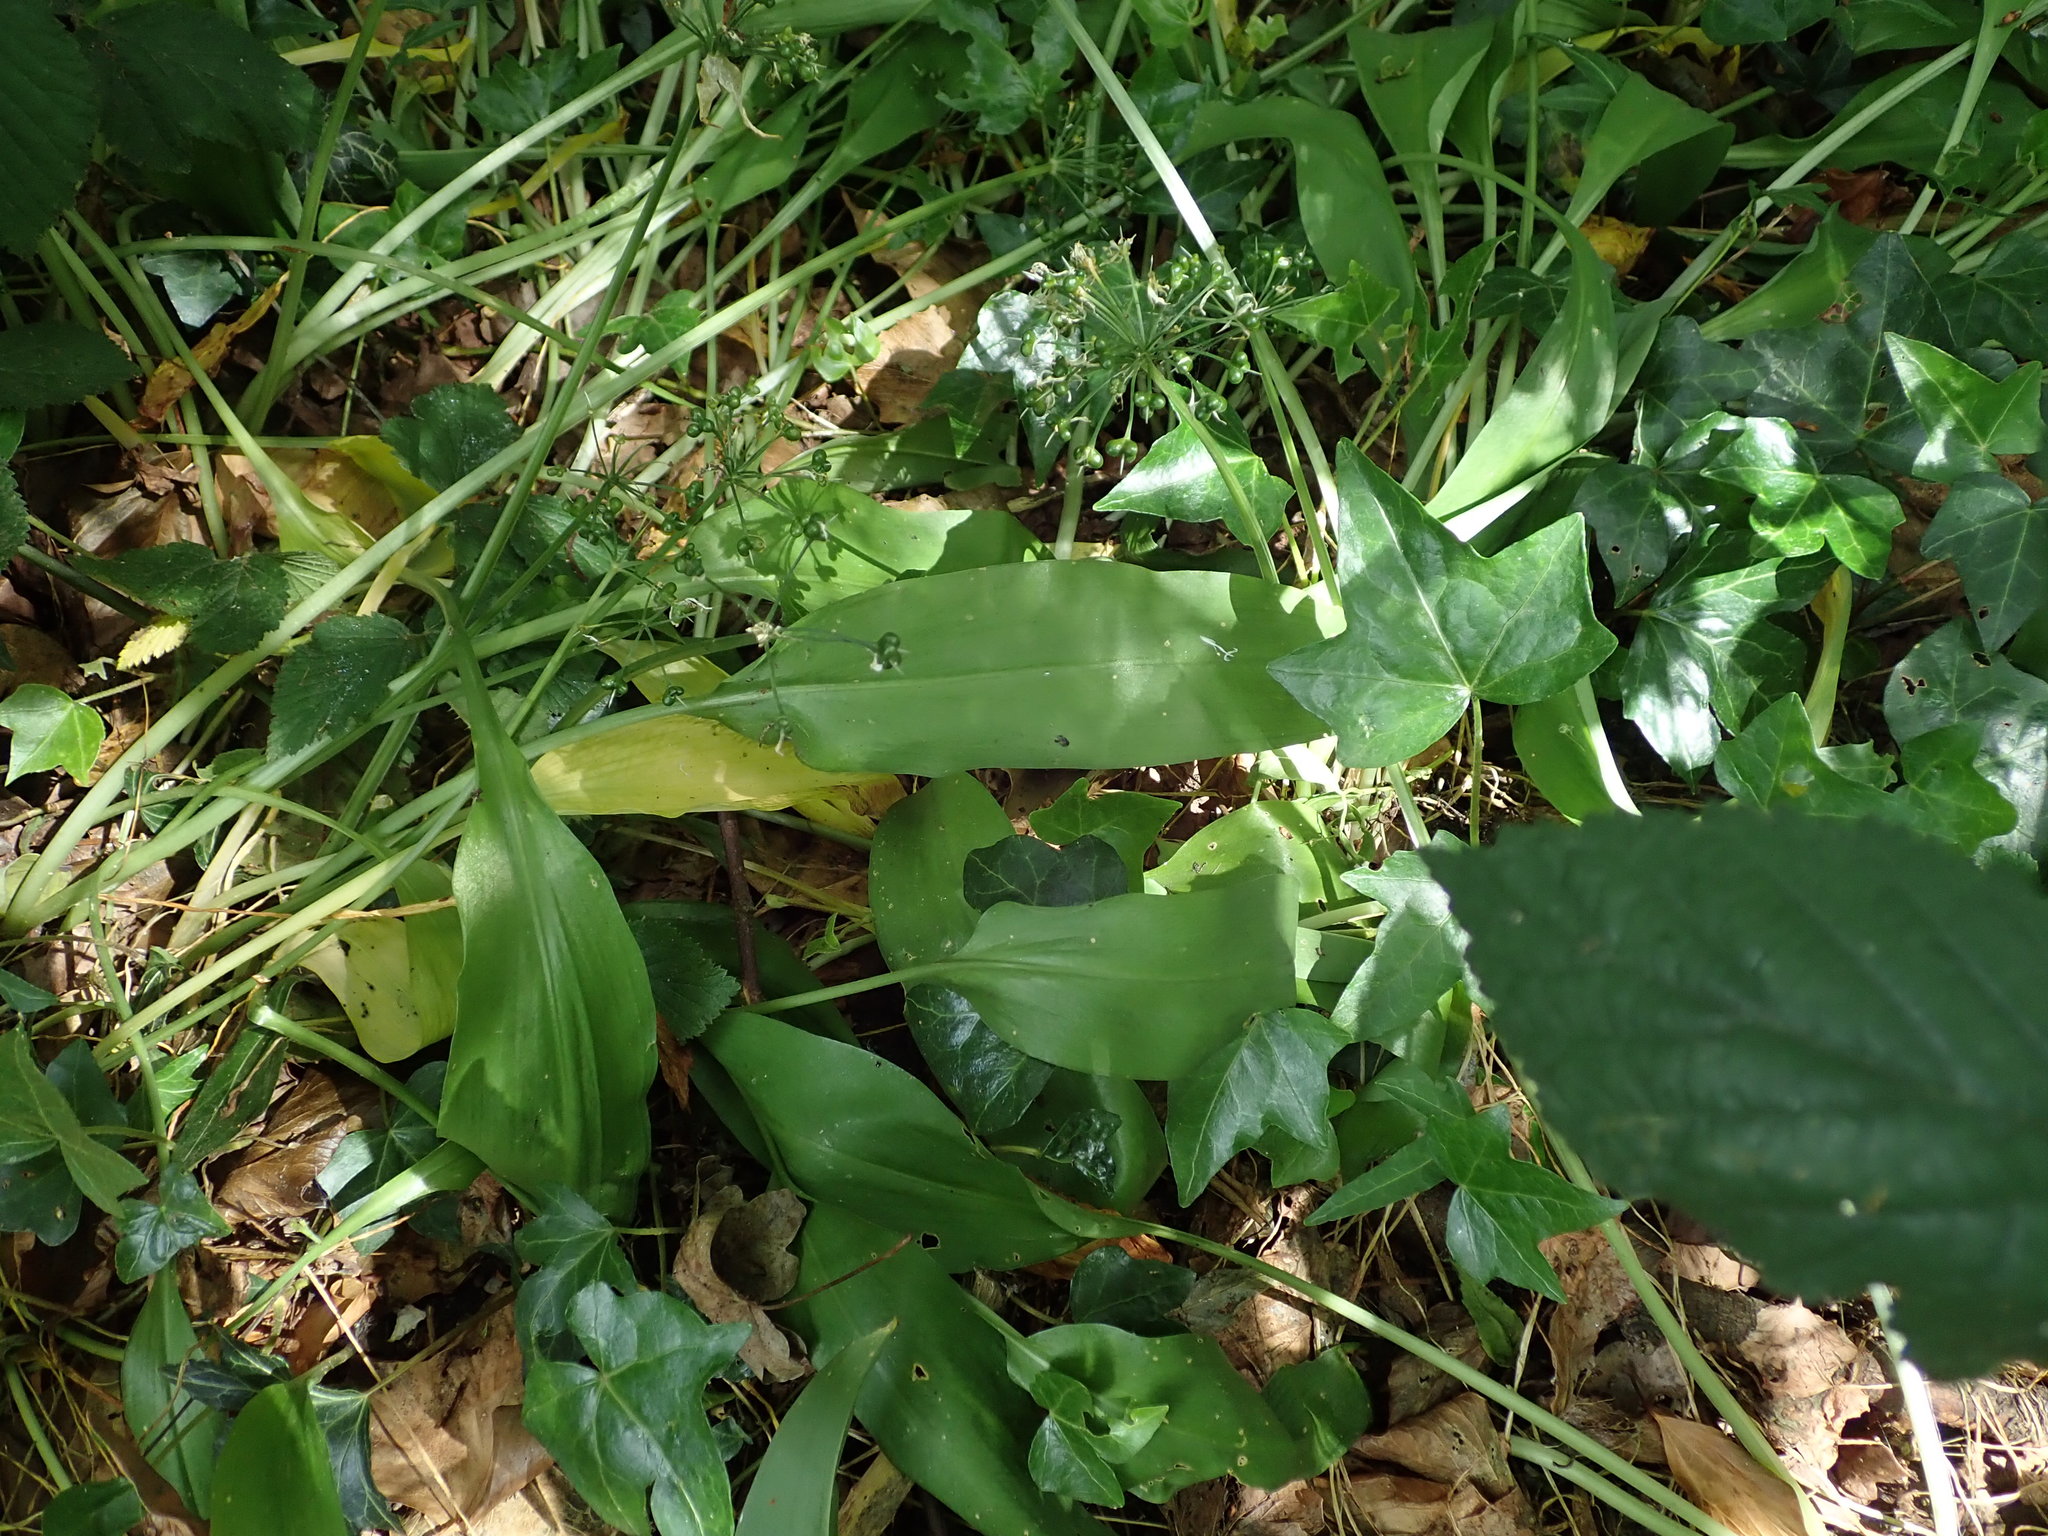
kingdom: Plantae
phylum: Tracheophyta
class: Liliopsida
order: Asparagales
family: Amaryllidaceae
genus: Allium
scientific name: Allium ursinum
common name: Ramsons
